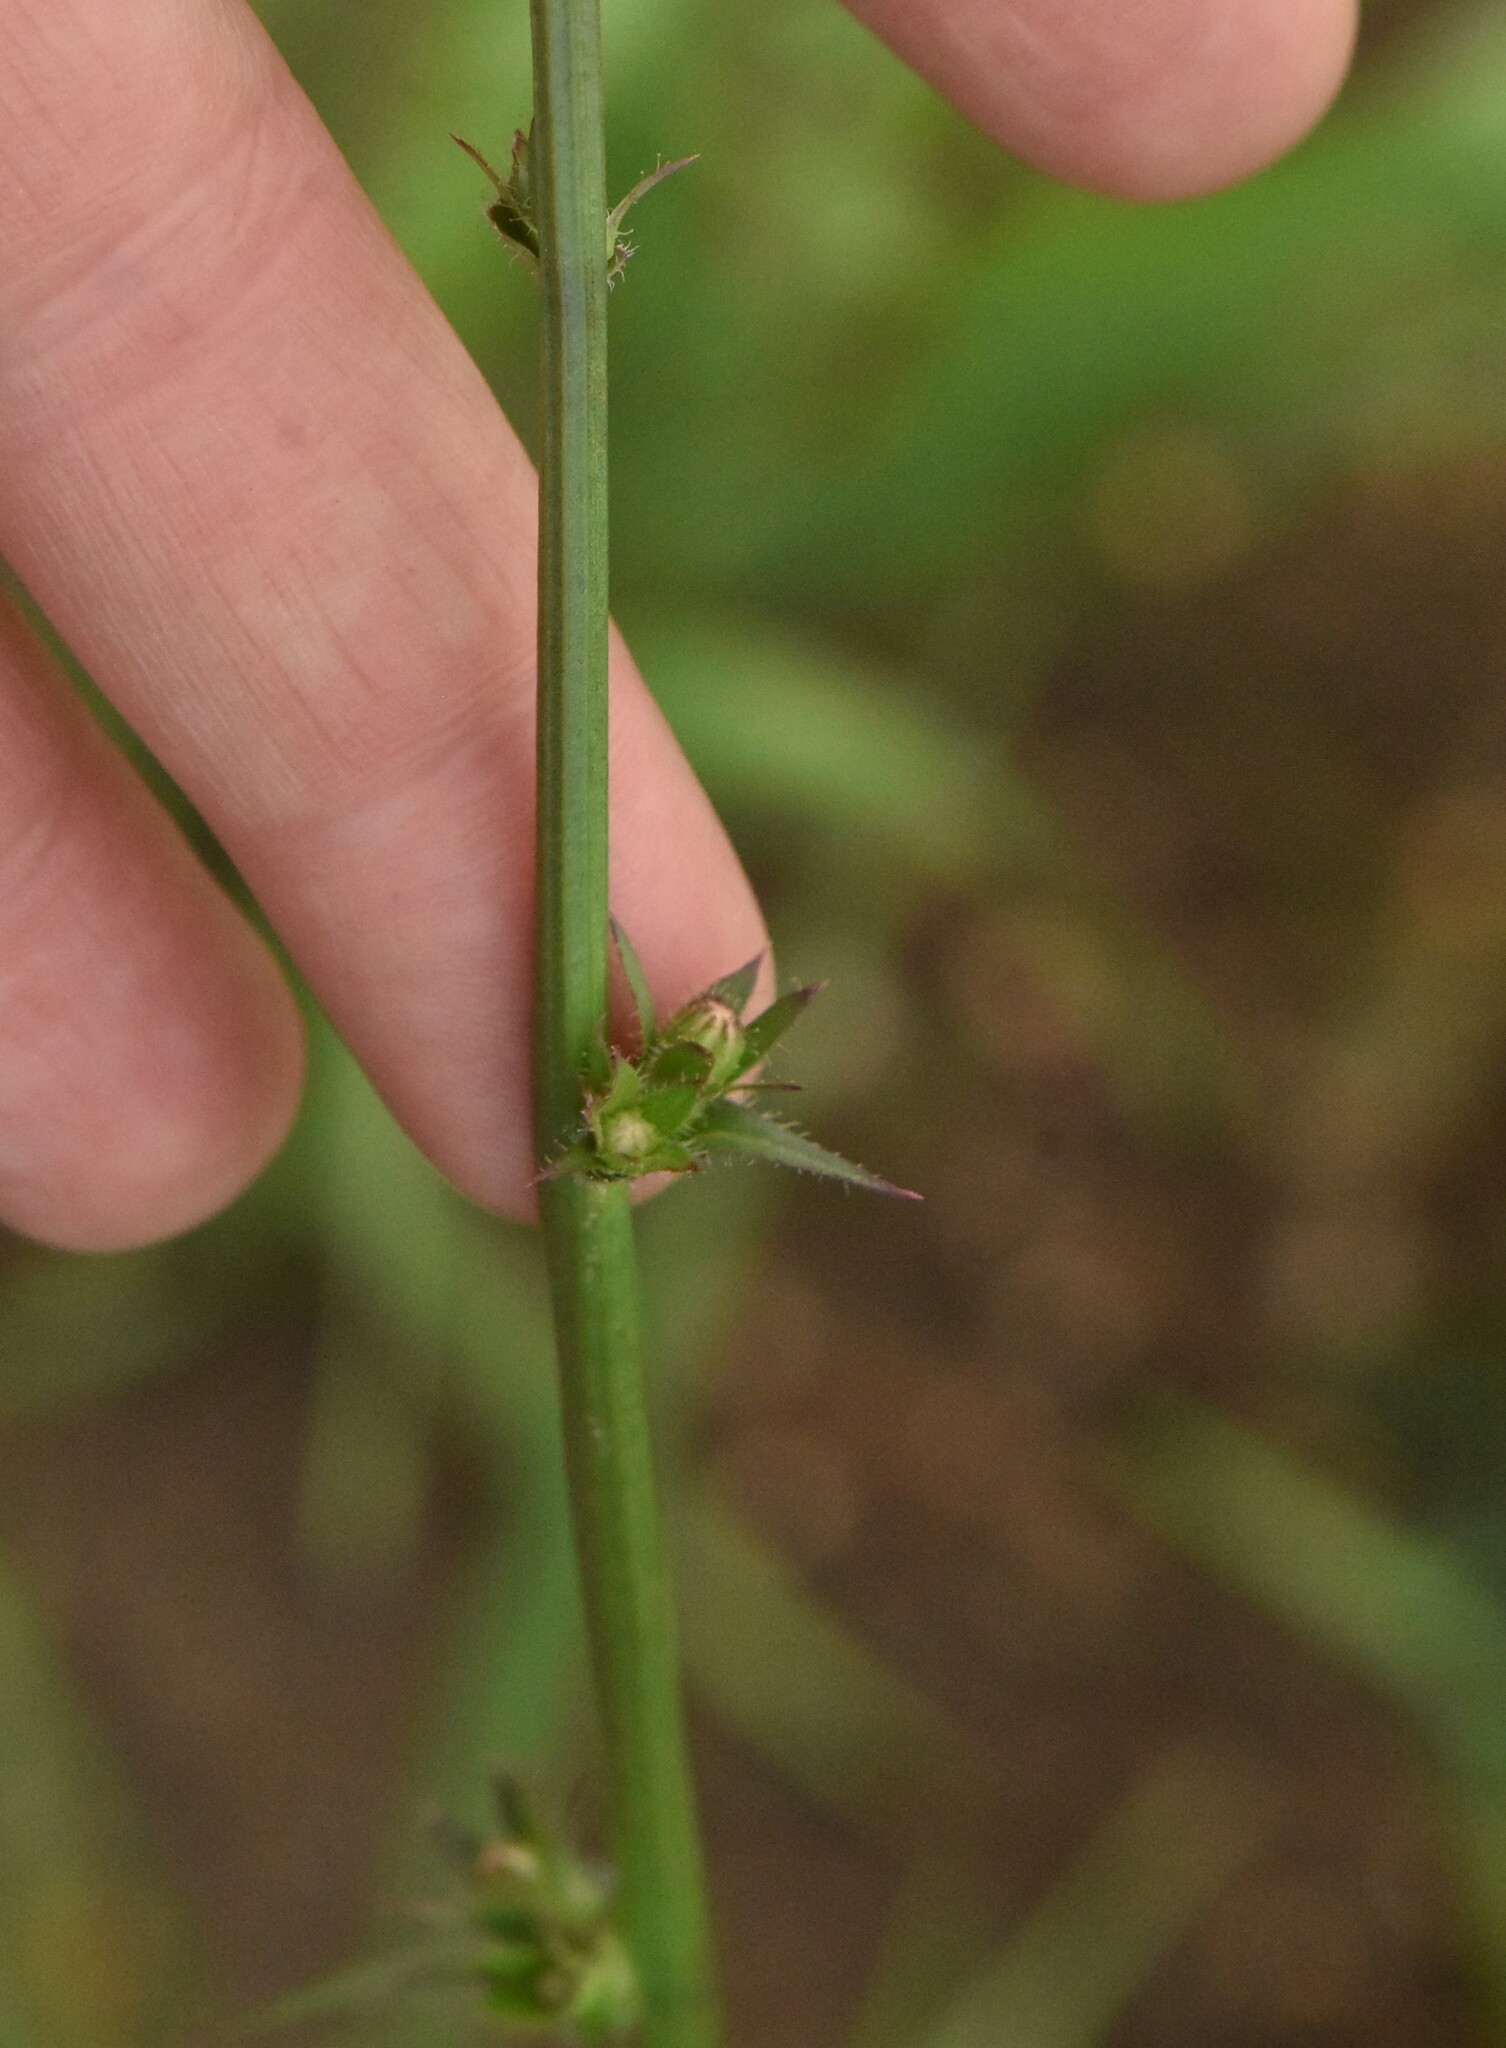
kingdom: Plantae
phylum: Tracheophyta
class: Magnoliopsida
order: Asterales
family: Asteraceae
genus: Cichorium
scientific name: Cichorium intybus
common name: Chicory
